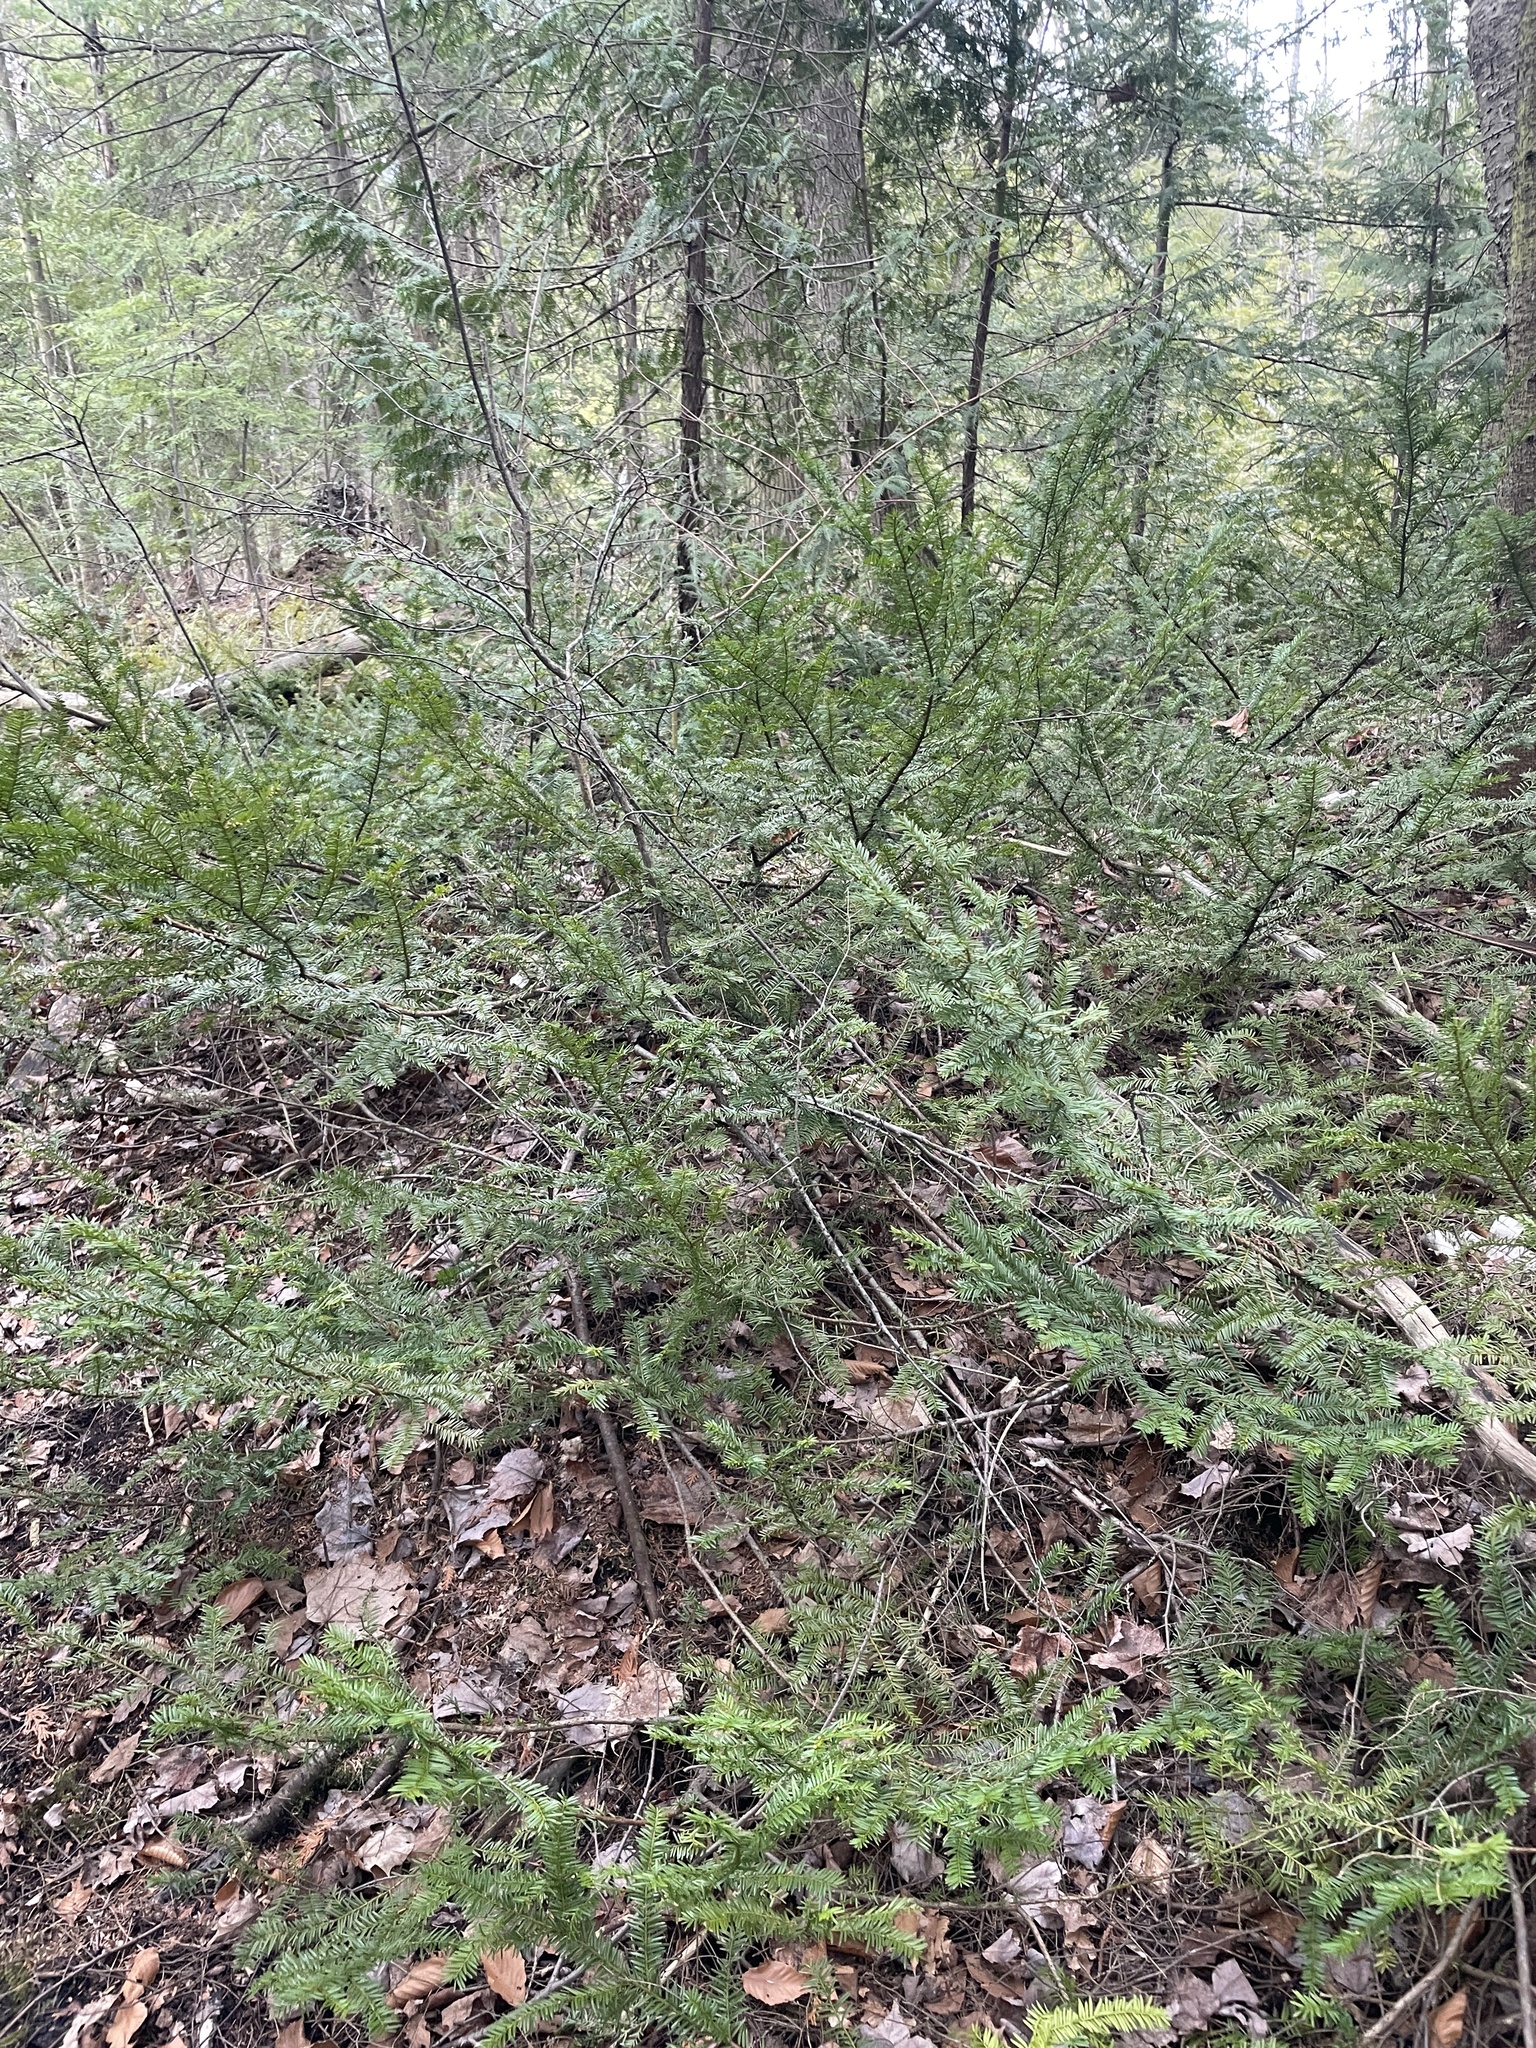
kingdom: Plantae
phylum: Tracheophyta
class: Pinopsida
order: Pinales
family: Taxaceae
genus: Taxus
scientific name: Taxus canadensis
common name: American yew
